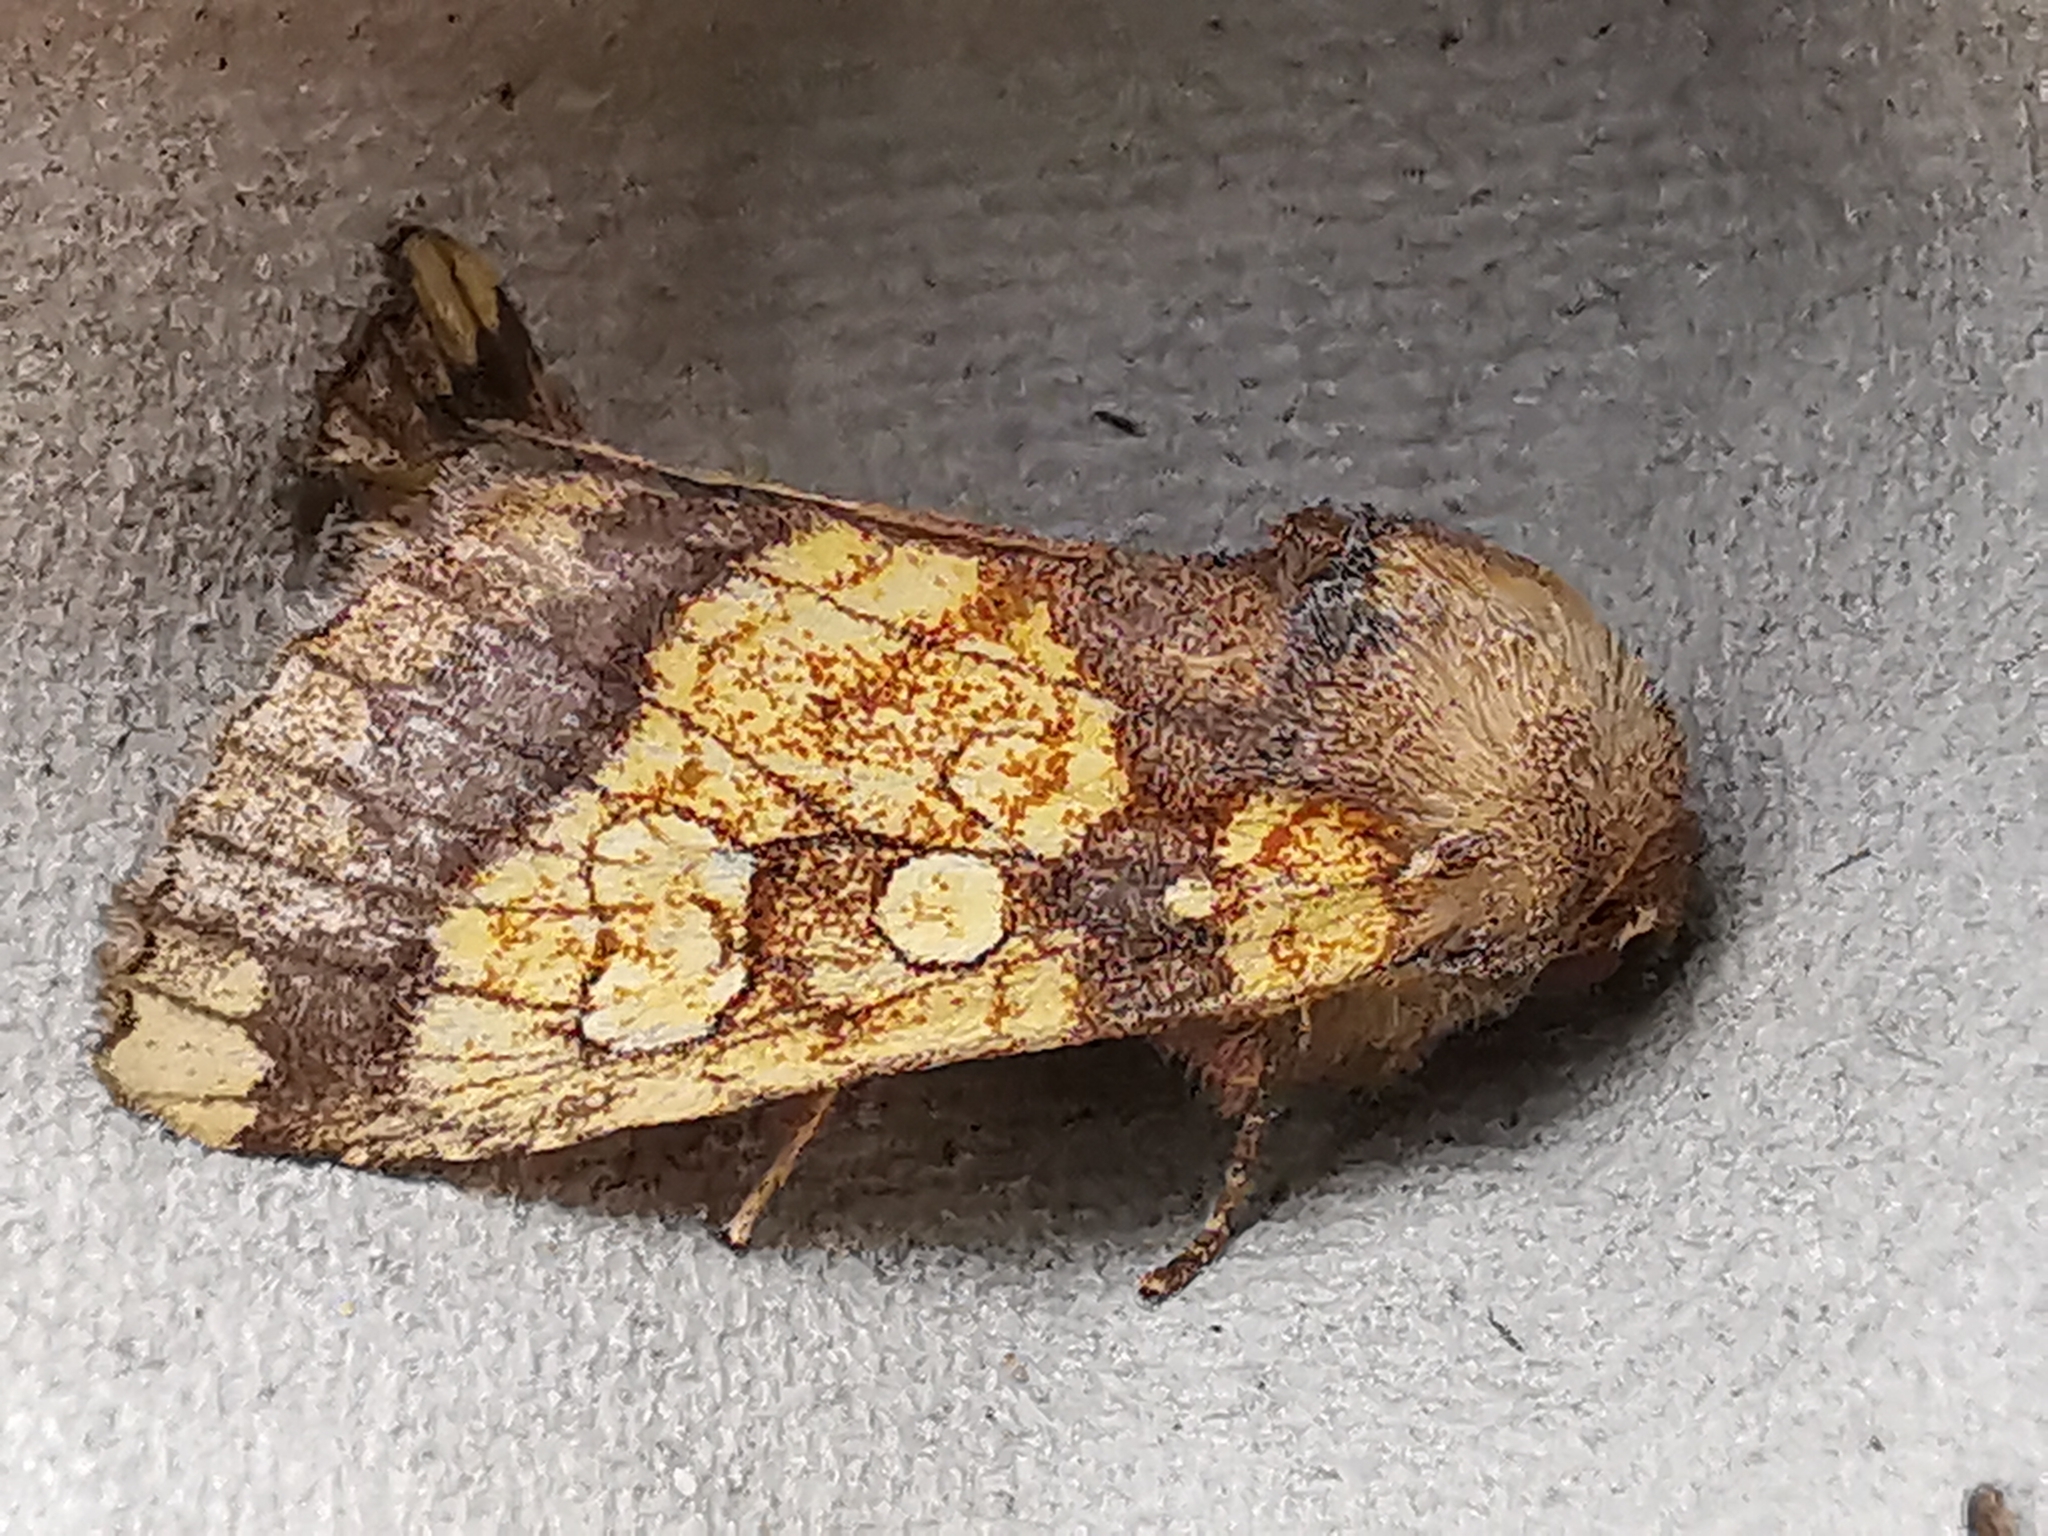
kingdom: Animalia
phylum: Arthropoda
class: Insecta
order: Lepidoptera
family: Noctuidae
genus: Gortyna
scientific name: Gortyna flavago
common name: Frosted orange
